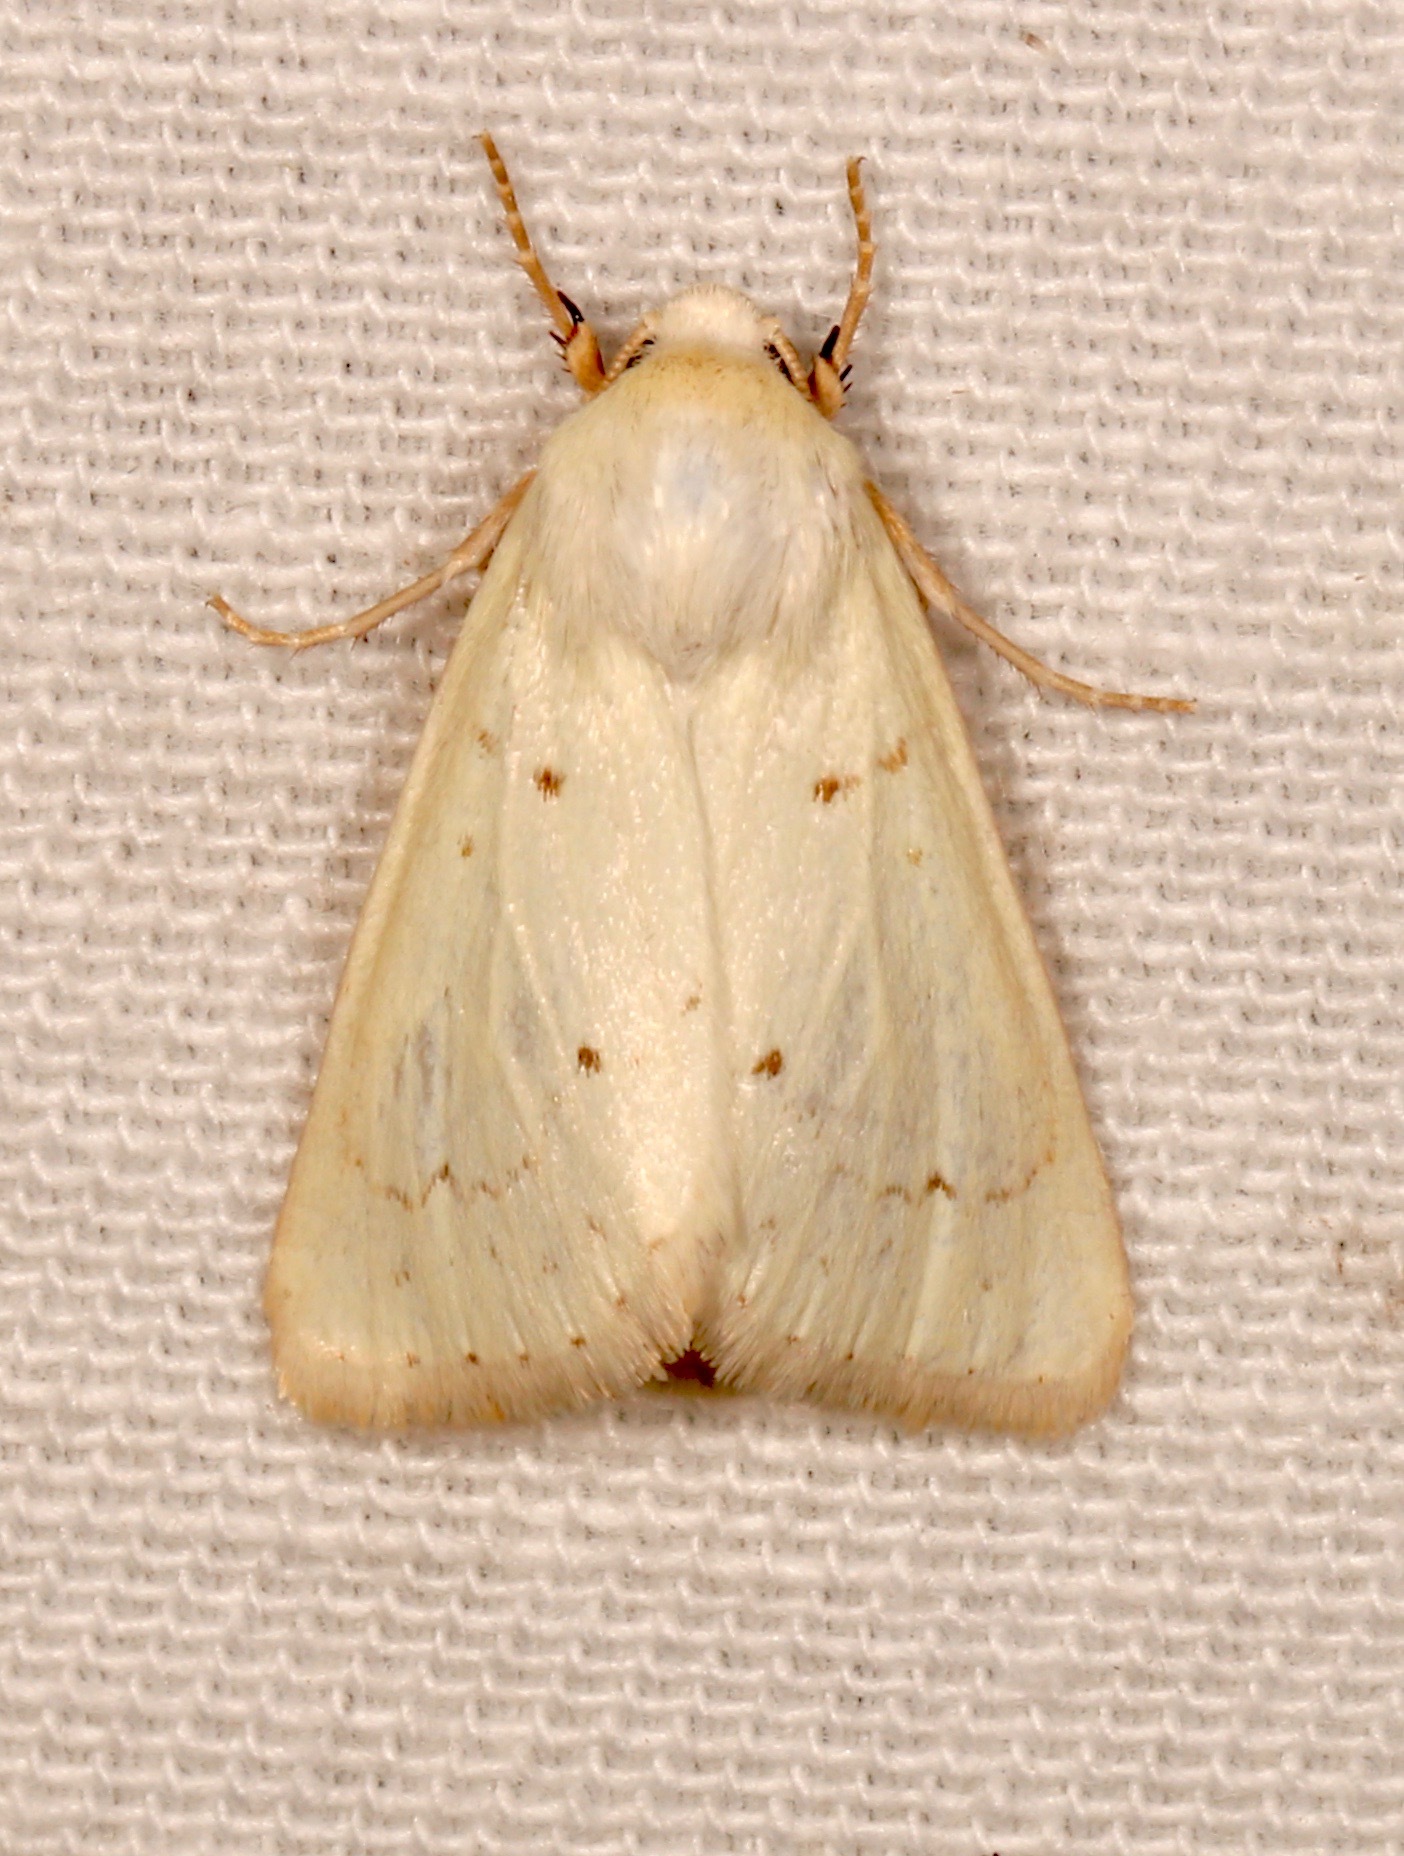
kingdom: Animalia
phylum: Arthropoda
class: Insecta
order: Lepidoptera
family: Noctuidae
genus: Schinia
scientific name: Schinia luxa
